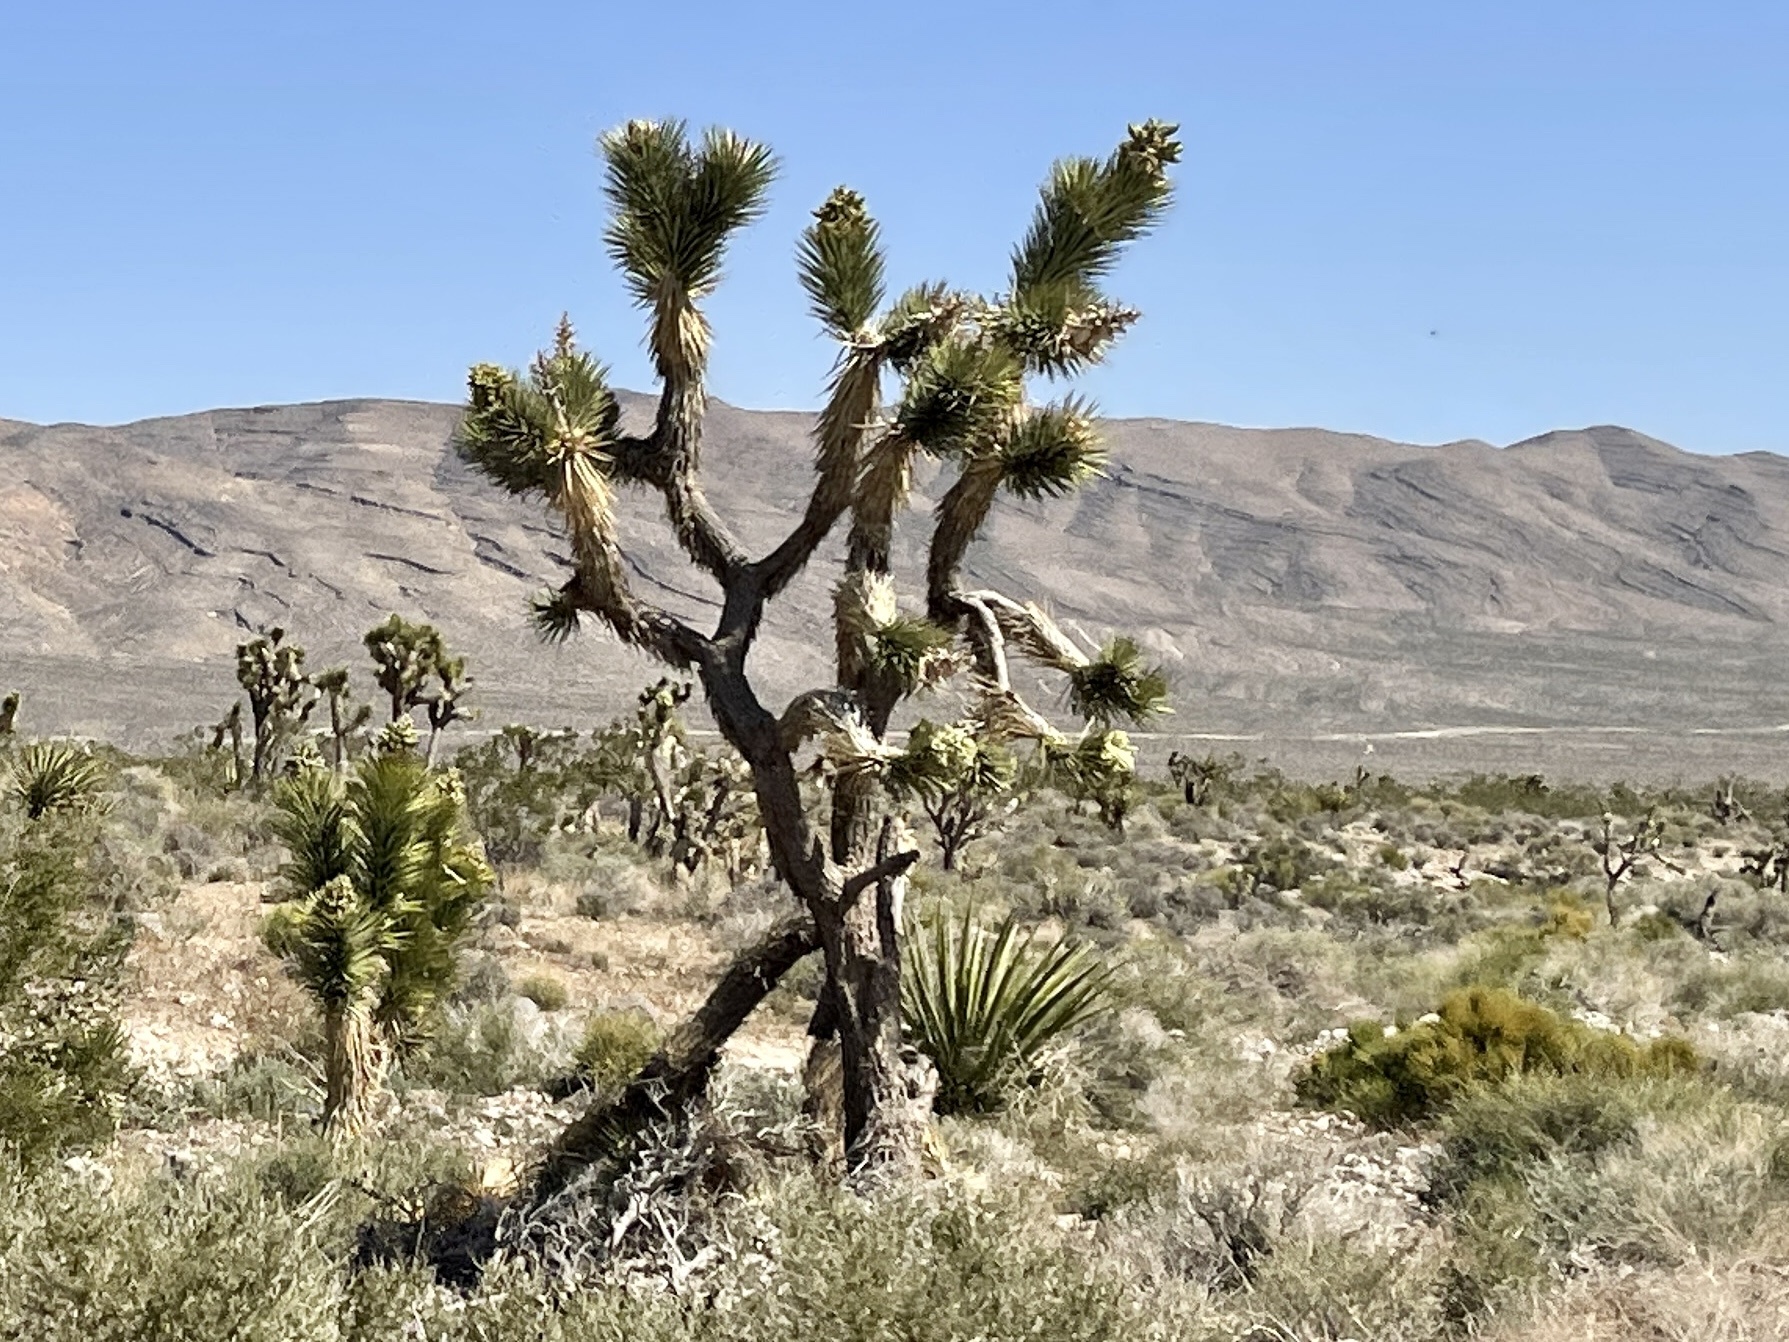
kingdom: Plantae
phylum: Tracheophyta
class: Liliopsida
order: Asparagales
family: Asparagaceae
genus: Yucca
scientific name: Yucca brevifolia
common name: Joshua tree
